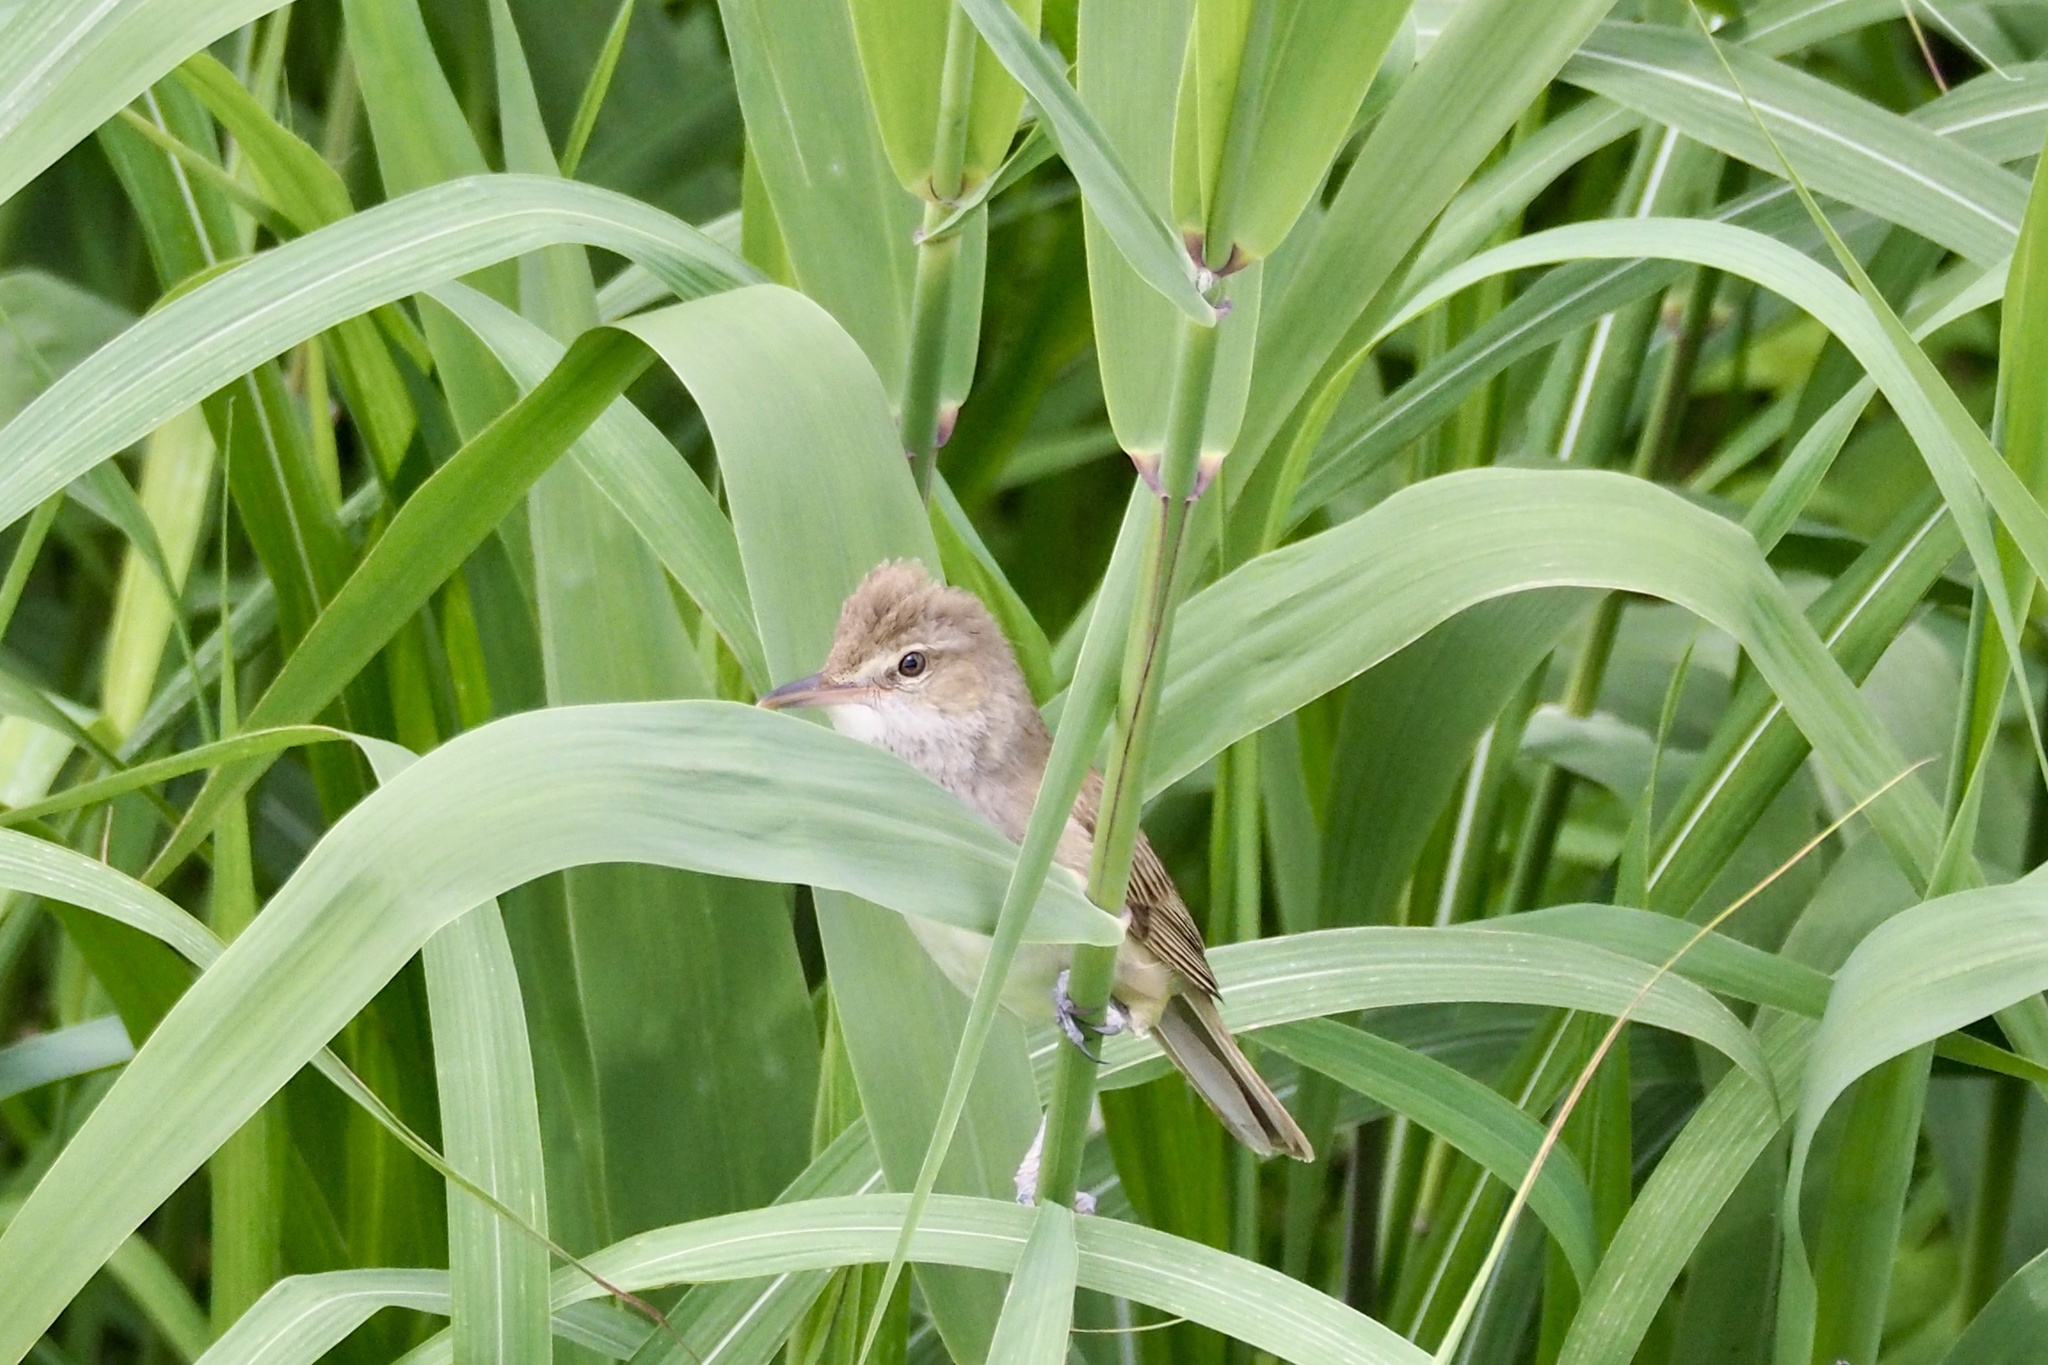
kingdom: Animalia
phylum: Chordata
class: Aves
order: Passeriformes
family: Acrocephalidae
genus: Acrocephalus
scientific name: Acrocephalus orientalis
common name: Oriental reed warbler
